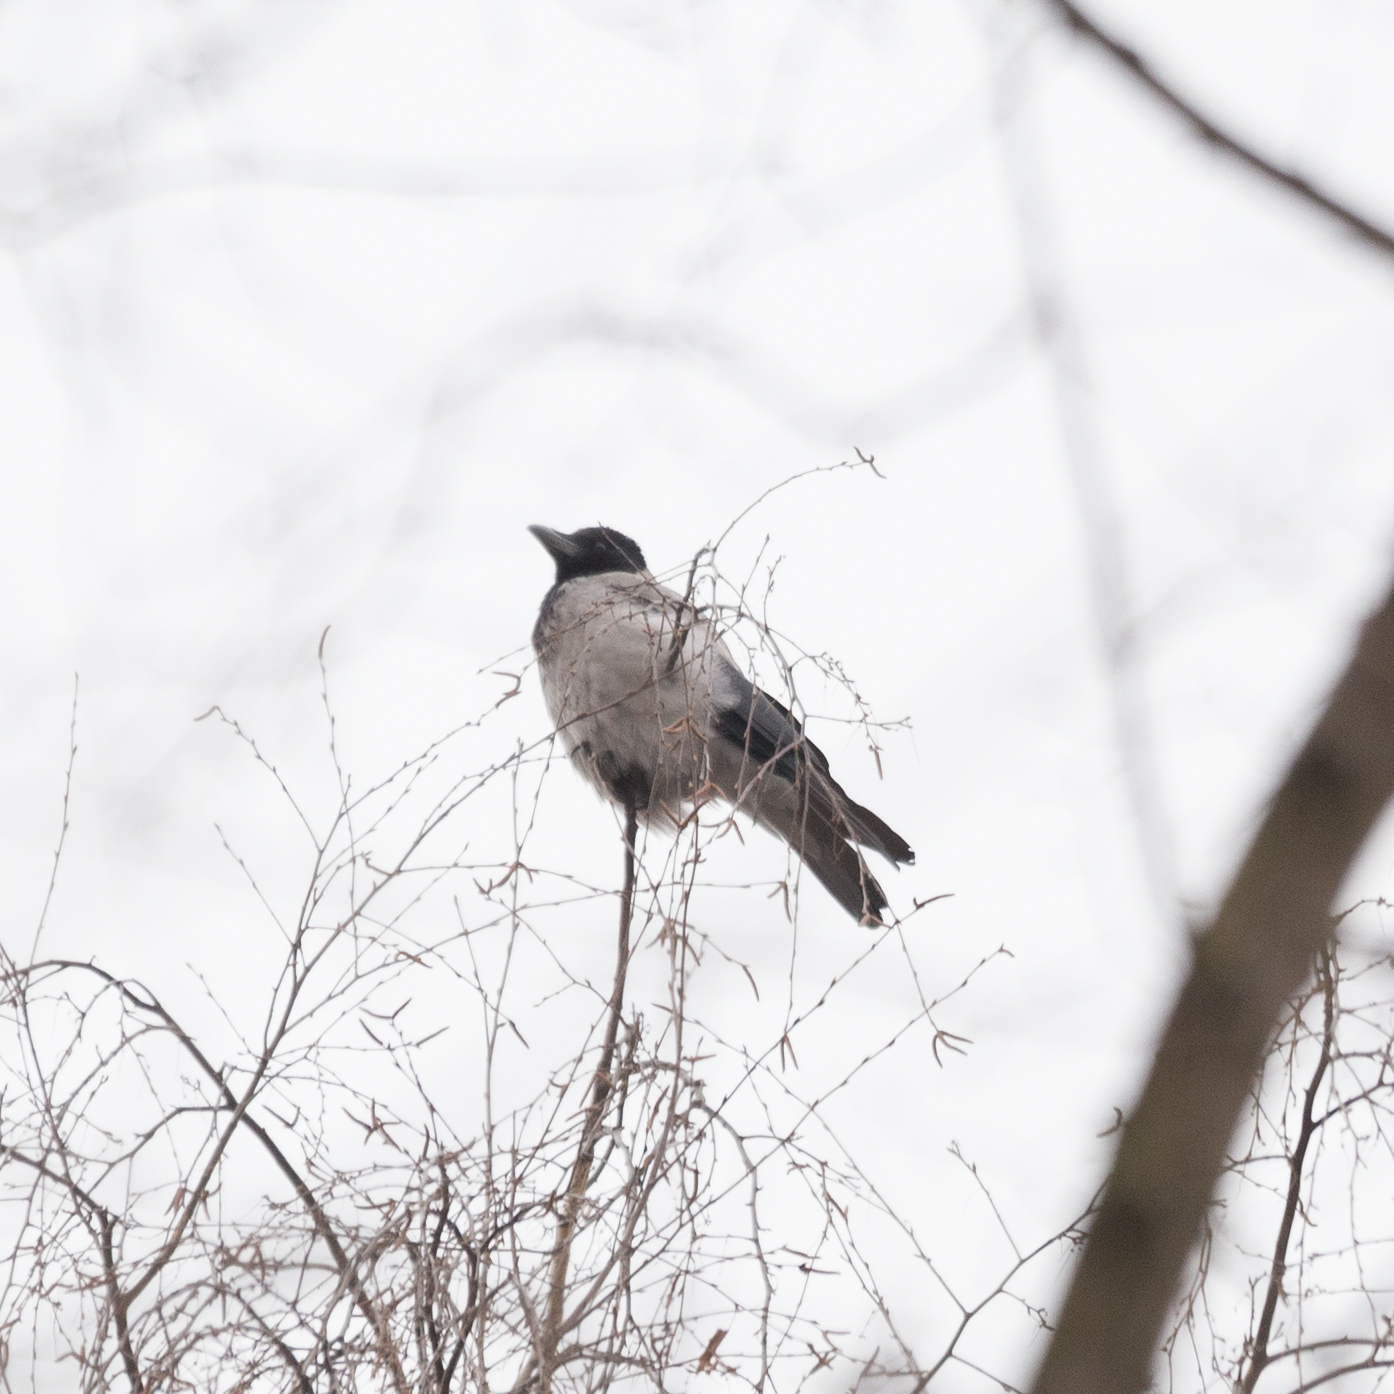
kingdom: Animalia
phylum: Chordata
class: Aves
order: Passeriformes
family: Corvidae
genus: Corvus
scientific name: Corvus cornix
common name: Hooded crow
